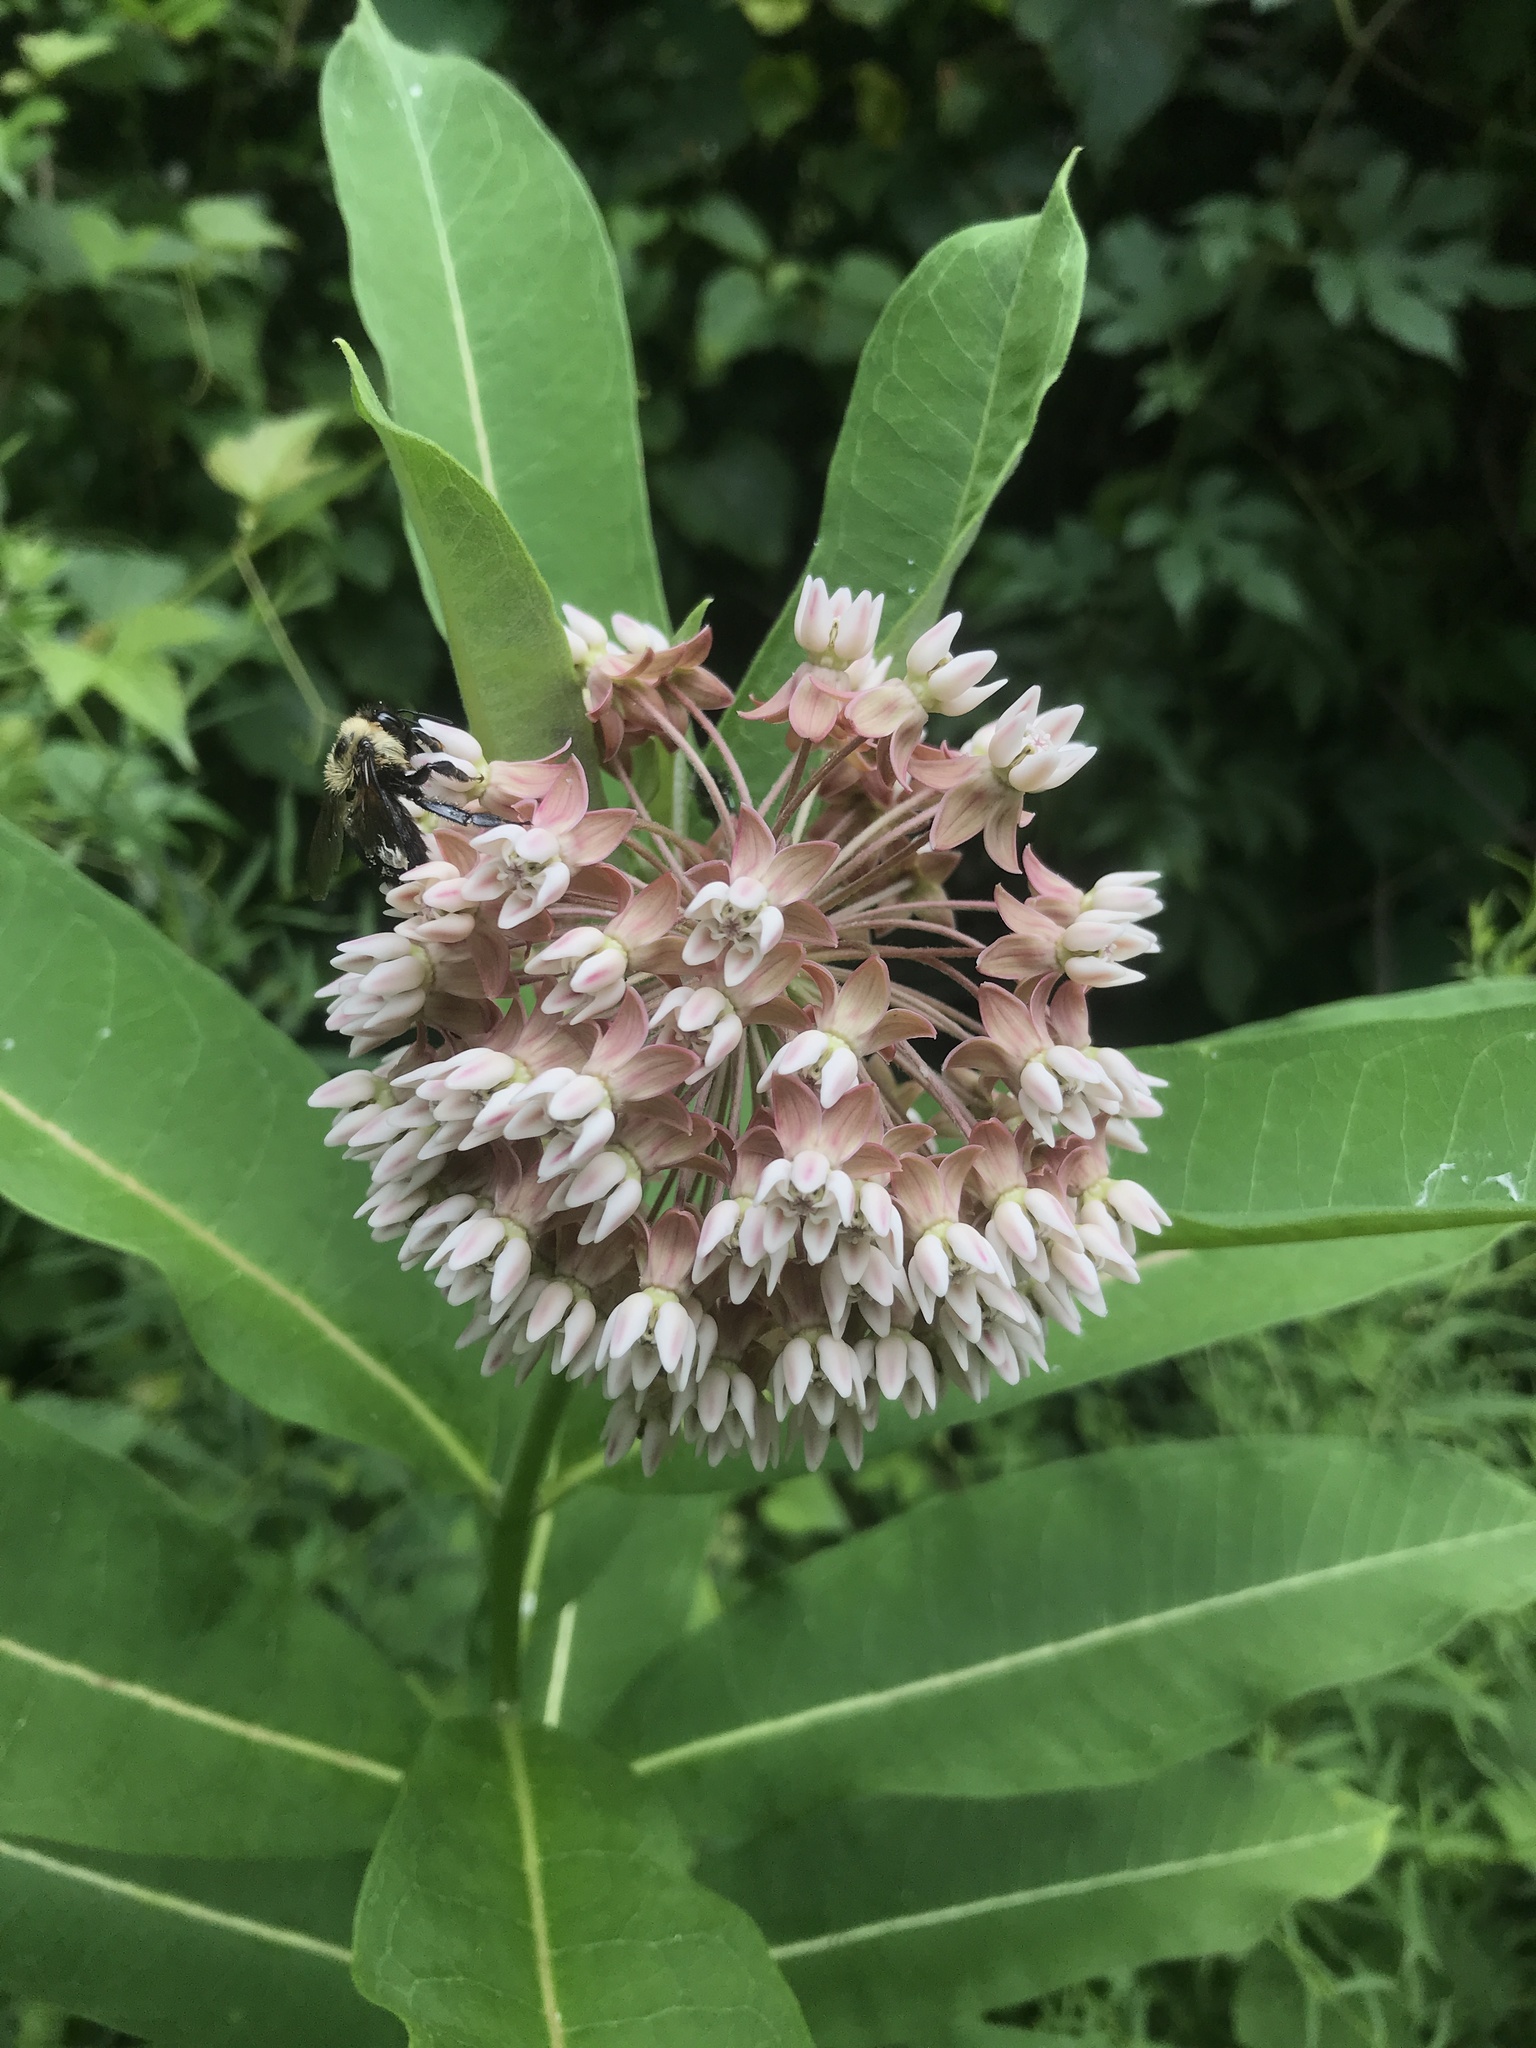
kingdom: Plantae
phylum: Tracheophyta
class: Magnoliopsida
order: Gentianales
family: Apocynaceae
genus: Asclepias
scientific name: Asclepias syriaca
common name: Common milkweed
